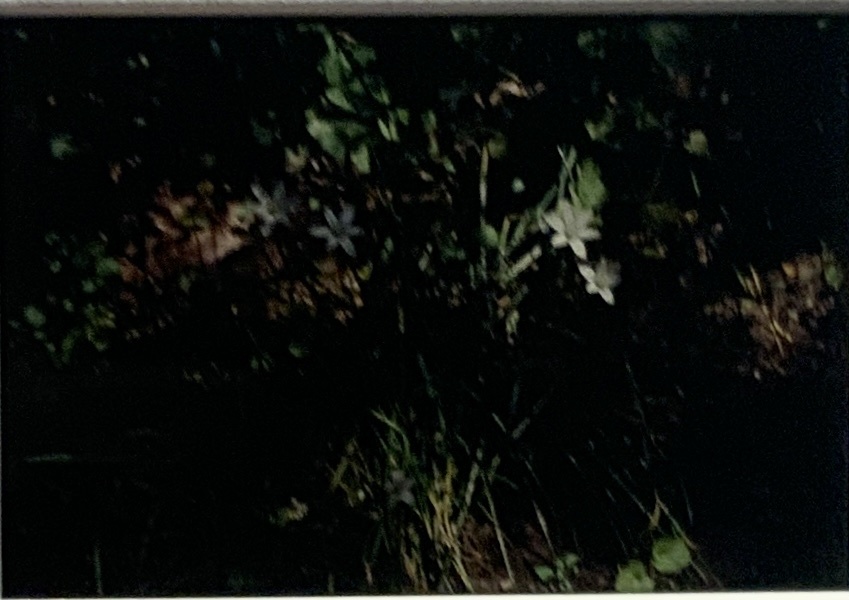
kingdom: Plantae
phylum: Tracheophyta
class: Liliopsida
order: Asparagales
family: Asparagaceae
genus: Ornithogalum
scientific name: Ornithogalum umbellatum
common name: Garden star-of-bethlehem
